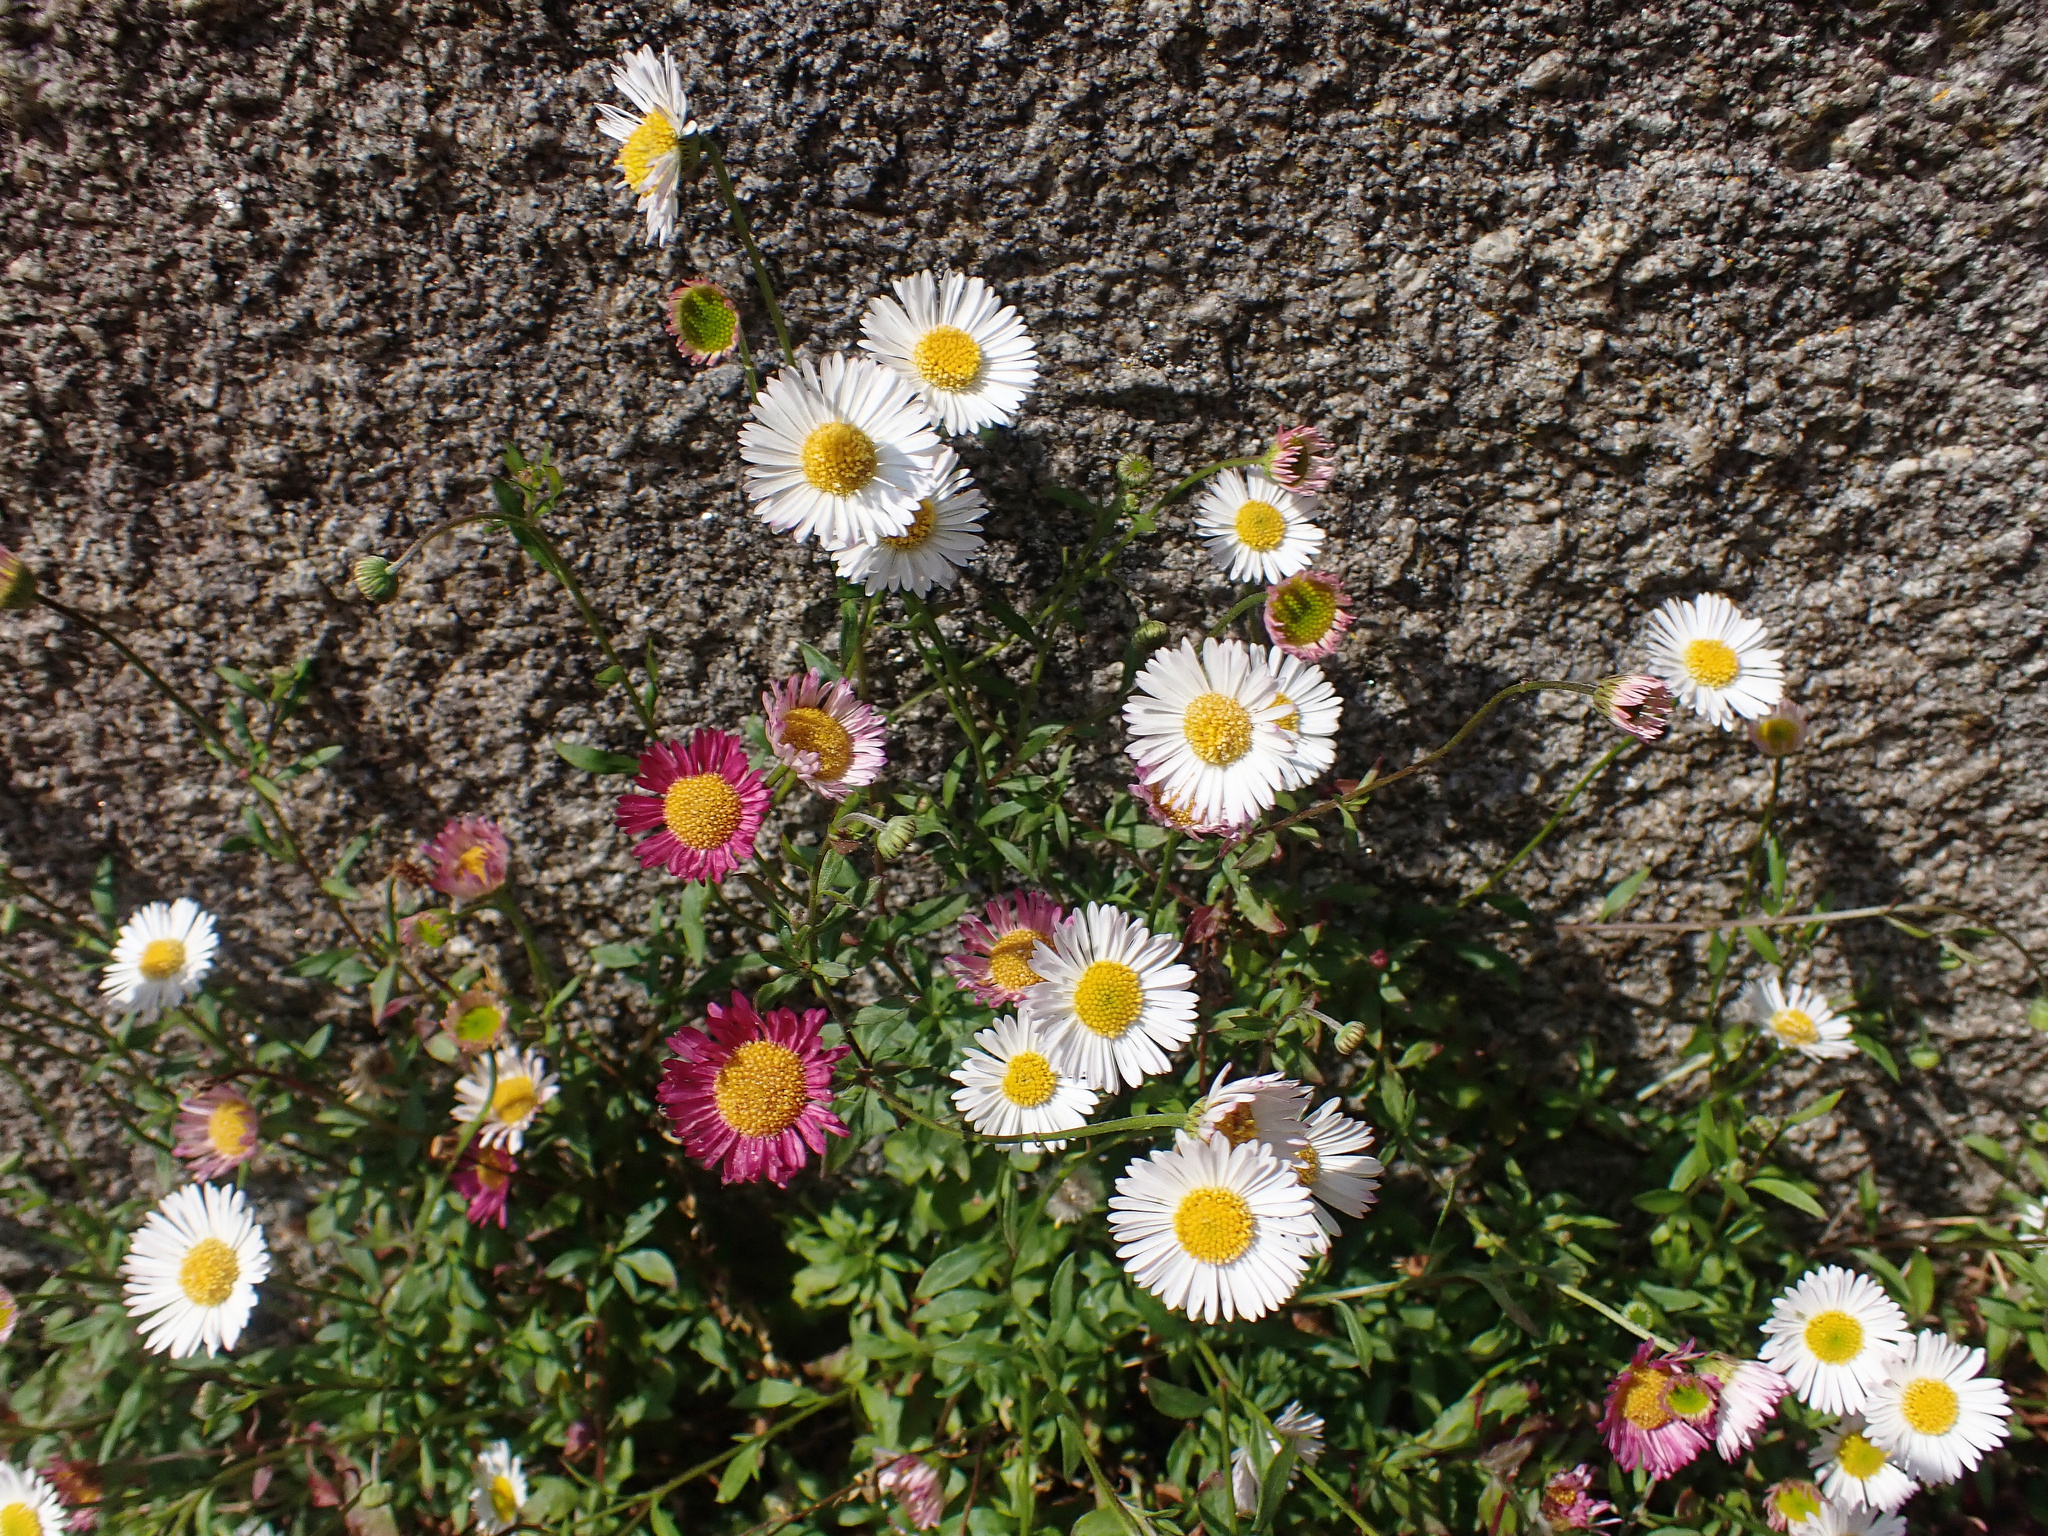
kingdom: Plantae
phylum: Tracheophyta
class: Magnoliopsida
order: Asterales
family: Asteraceae
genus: Erigeron
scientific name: Erigeron karvinskianus
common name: Mexican fleabane
